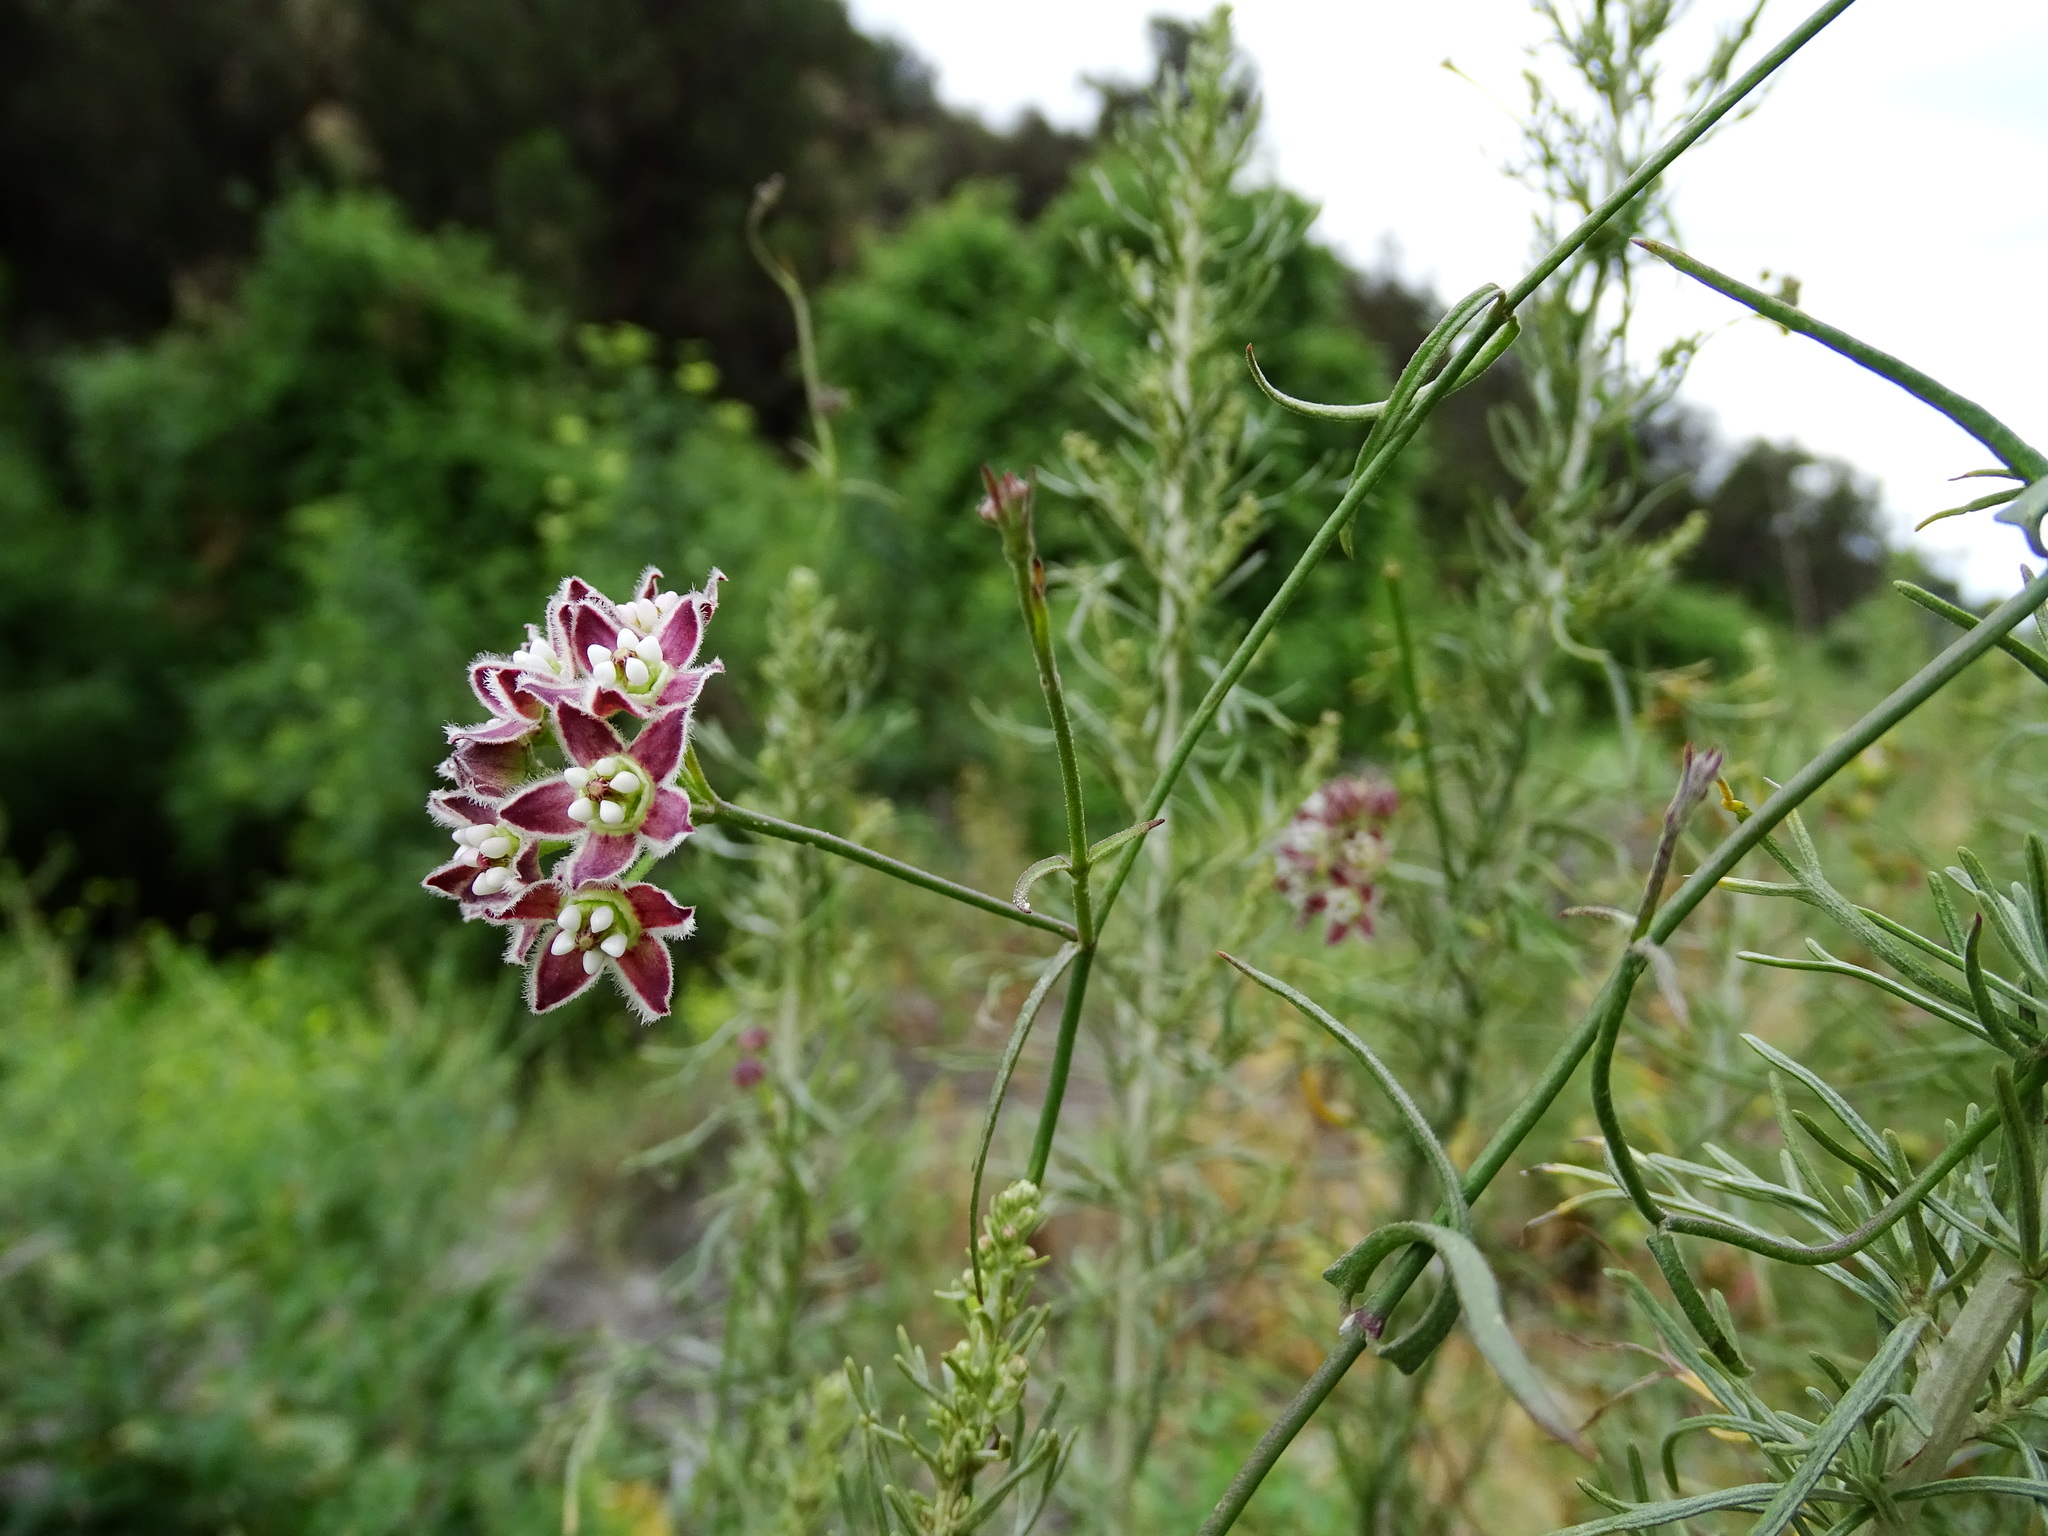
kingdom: Plantae
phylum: Tracheophyta
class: Magnoliopsida
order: Gentianales
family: Apocynaceae
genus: Funastrum
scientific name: Funastrum heterophyllum
